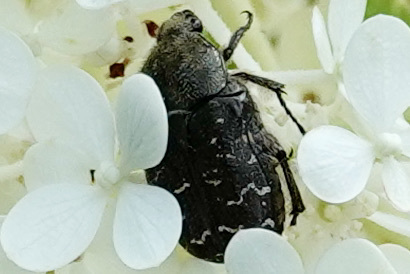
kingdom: Animalia
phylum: Arthropoda
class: Insecta
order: Coleoptera
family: Scarabaeidae
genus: Euphoria
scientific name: Euphoria sepulcralis
